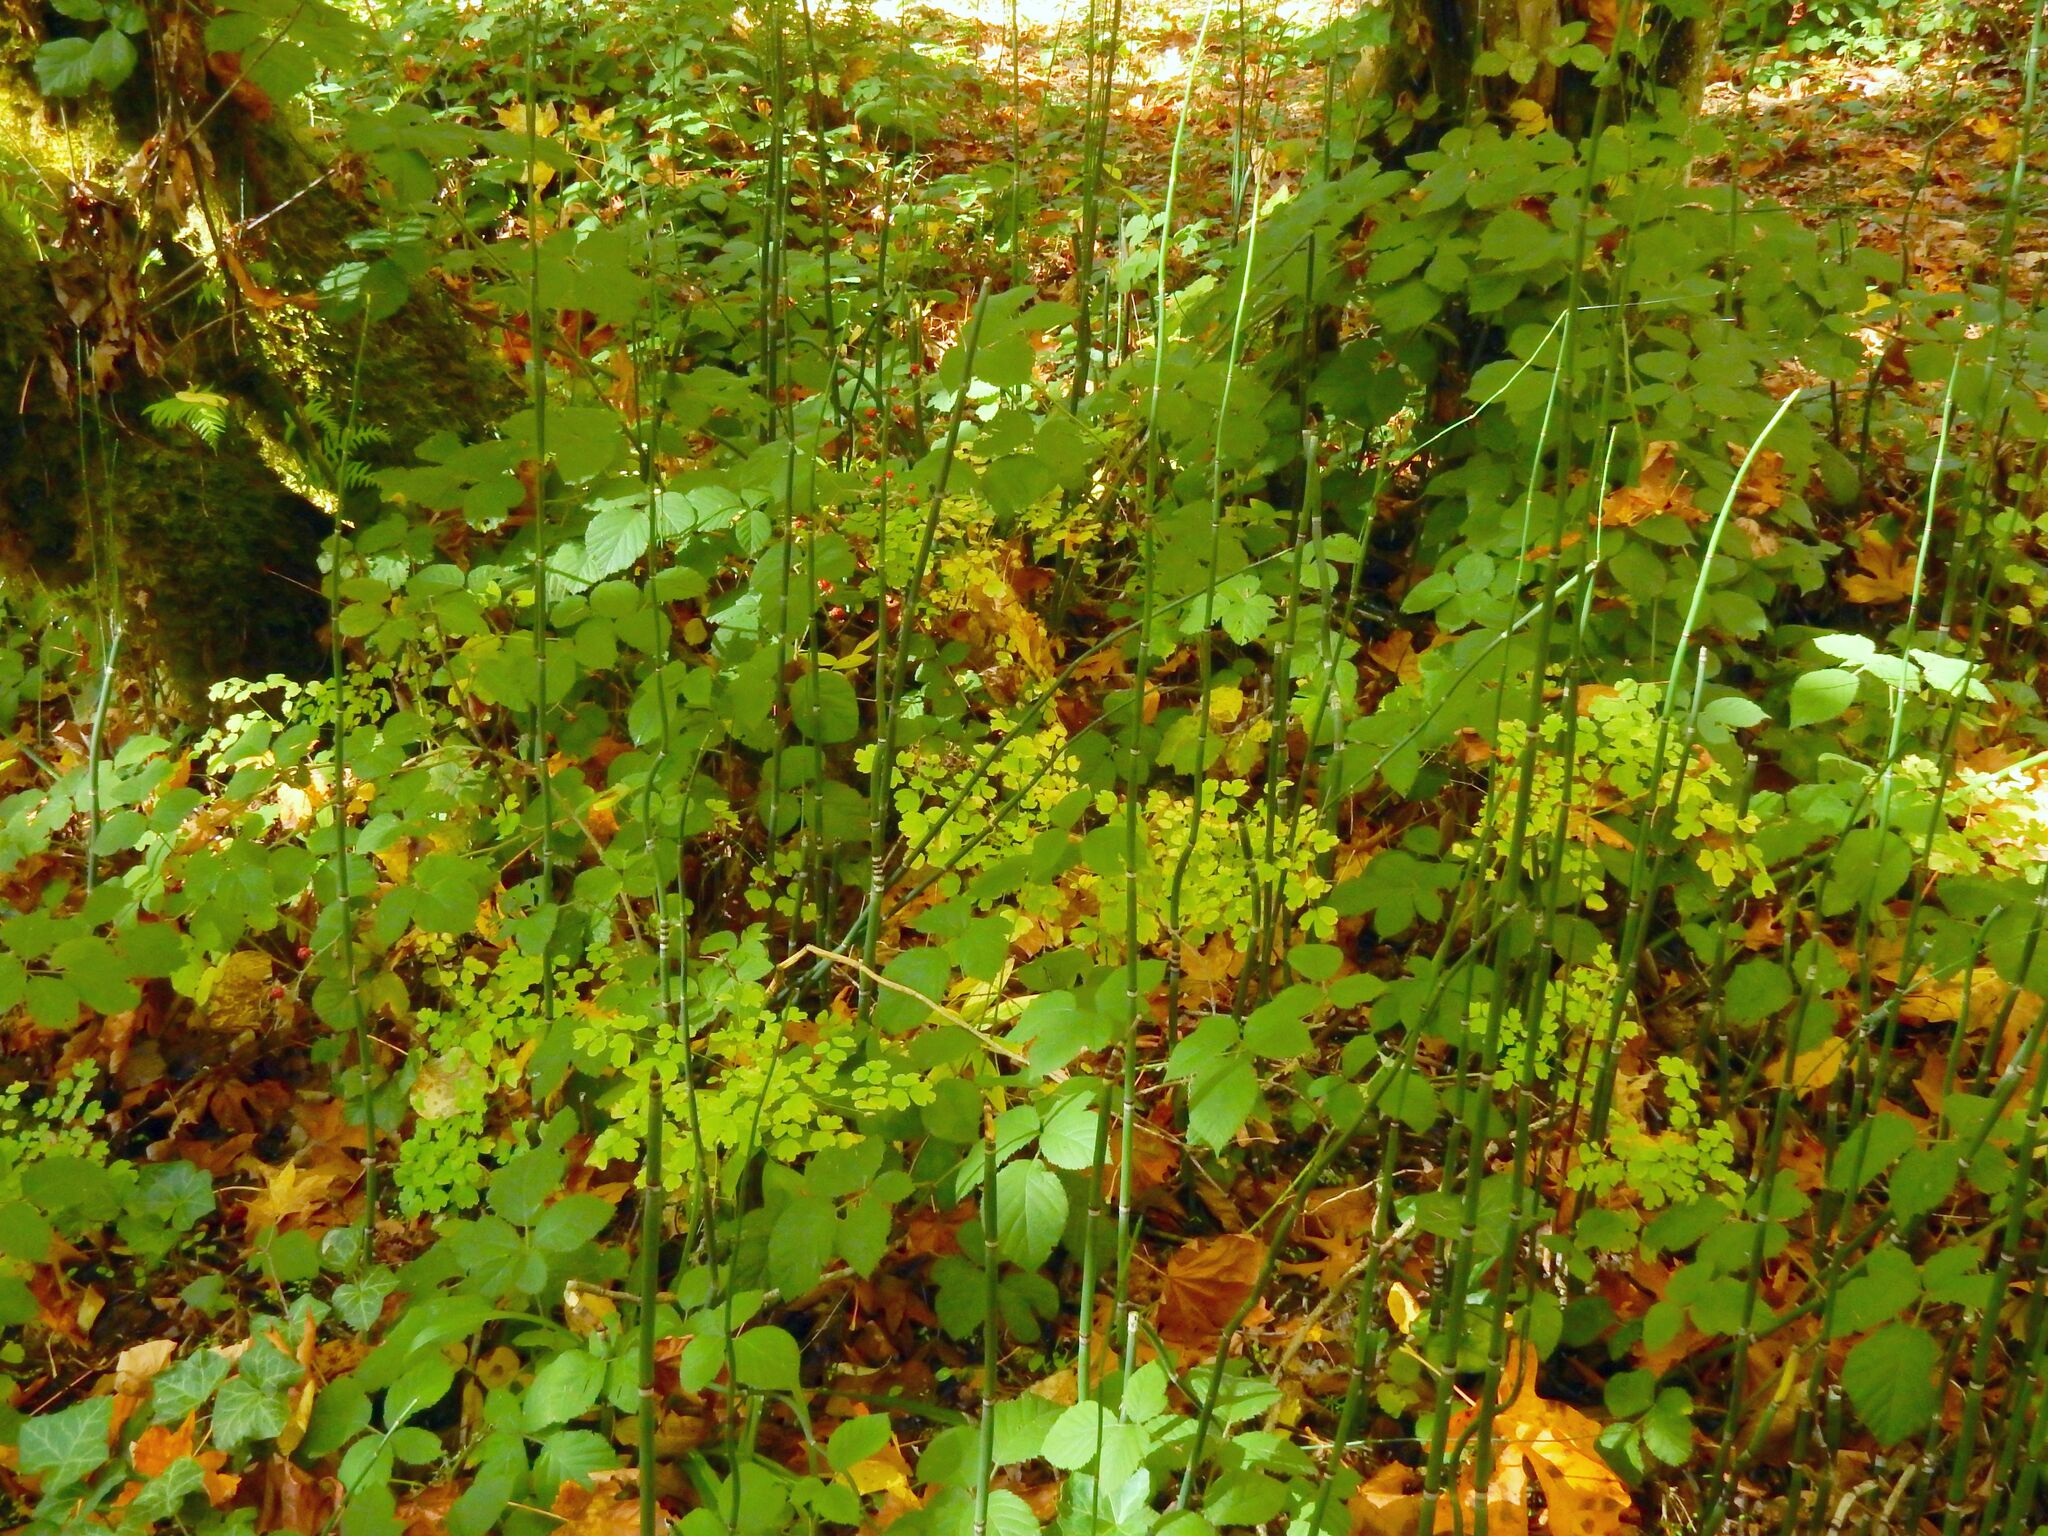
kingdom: Plantae
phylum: Tracheophyta
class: Polypodiopsida
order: Equisetales
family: Equisetaceae
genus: Equisetum
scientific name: Equisetum praealtum
